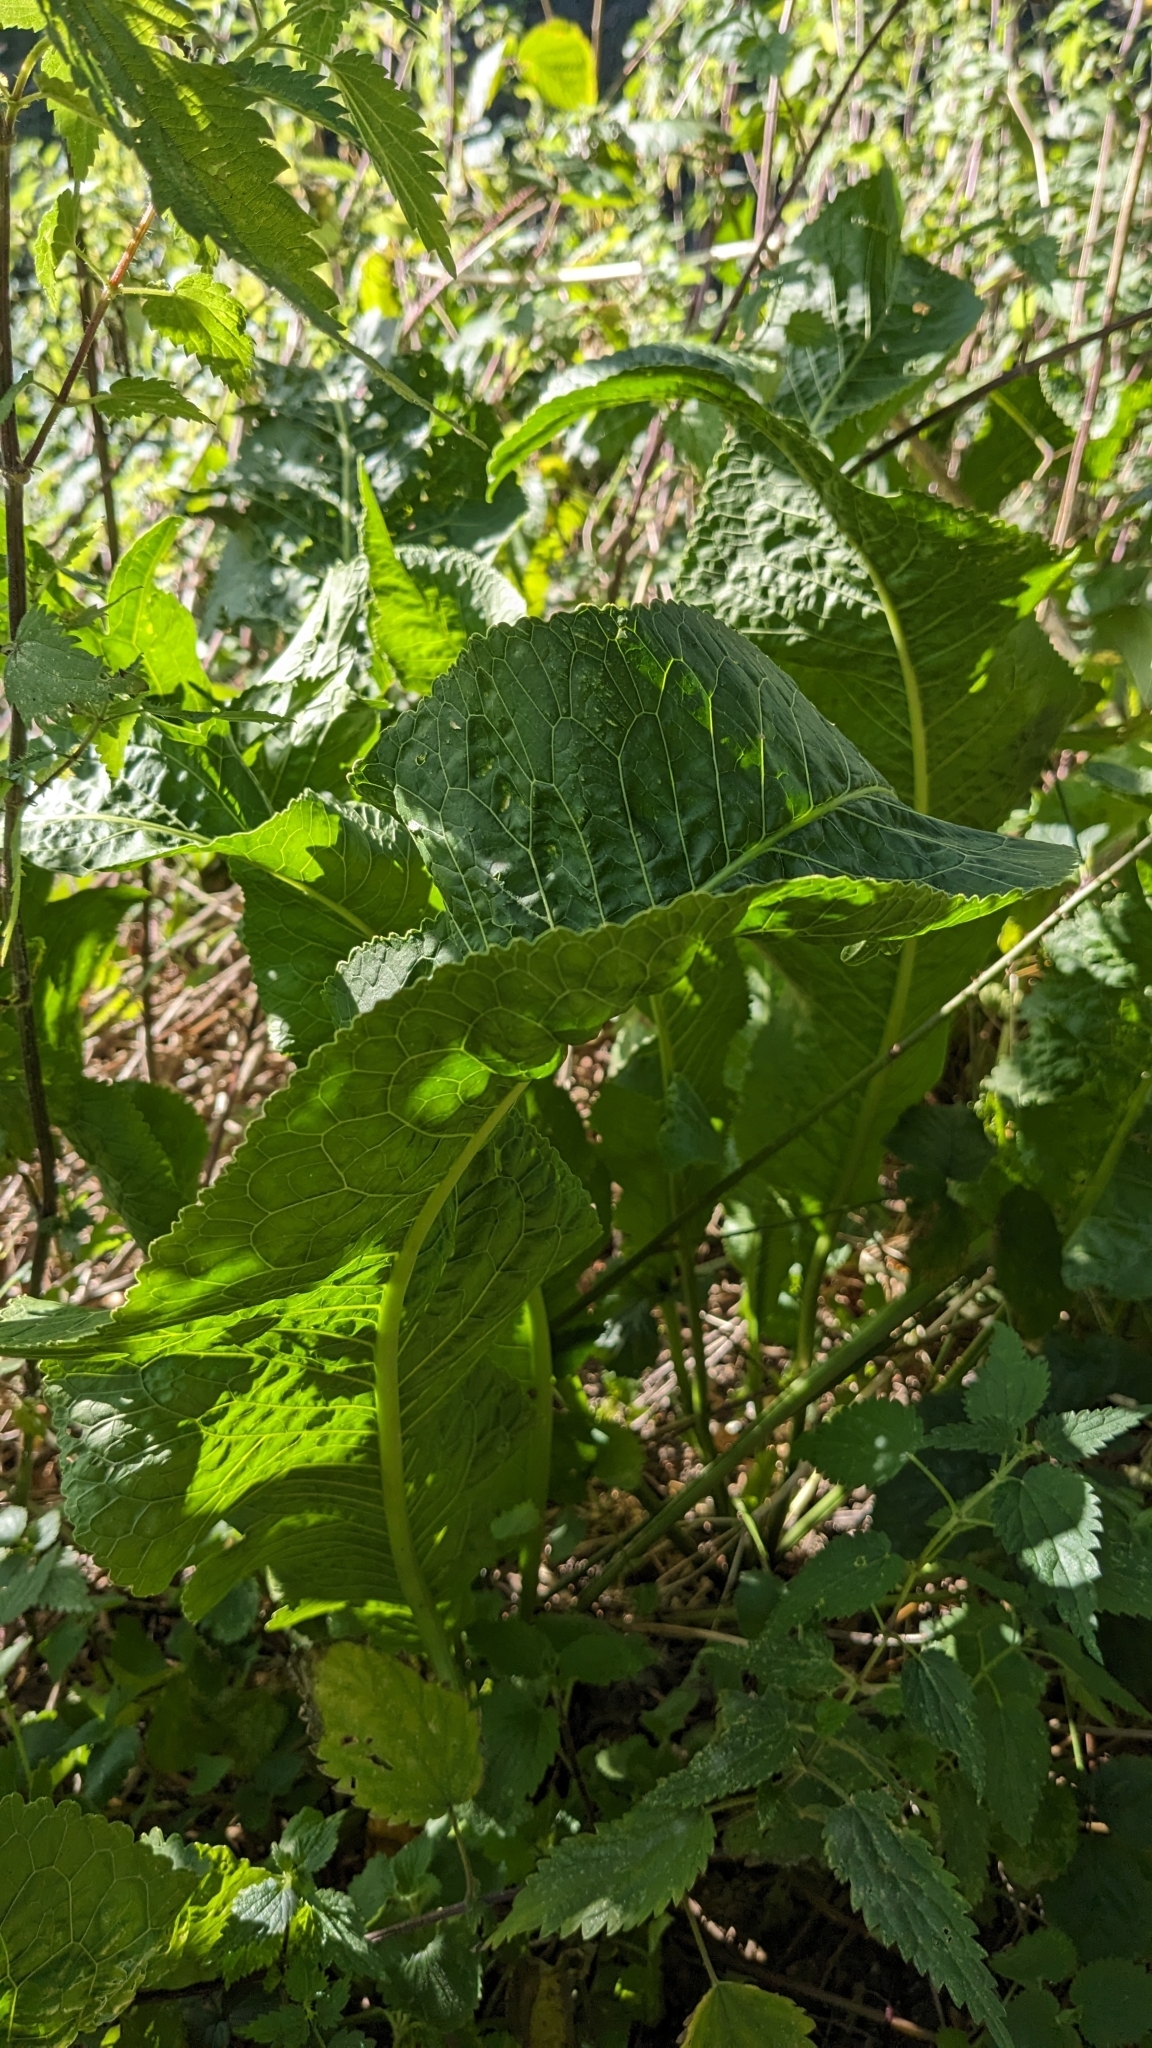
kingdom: Plantae
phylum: Tracheophyta
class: Magnoliopsida
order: Brassicales
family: Brassicaceae
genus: Armoracia
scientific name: Armoracia rusticana
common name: Horseradish
